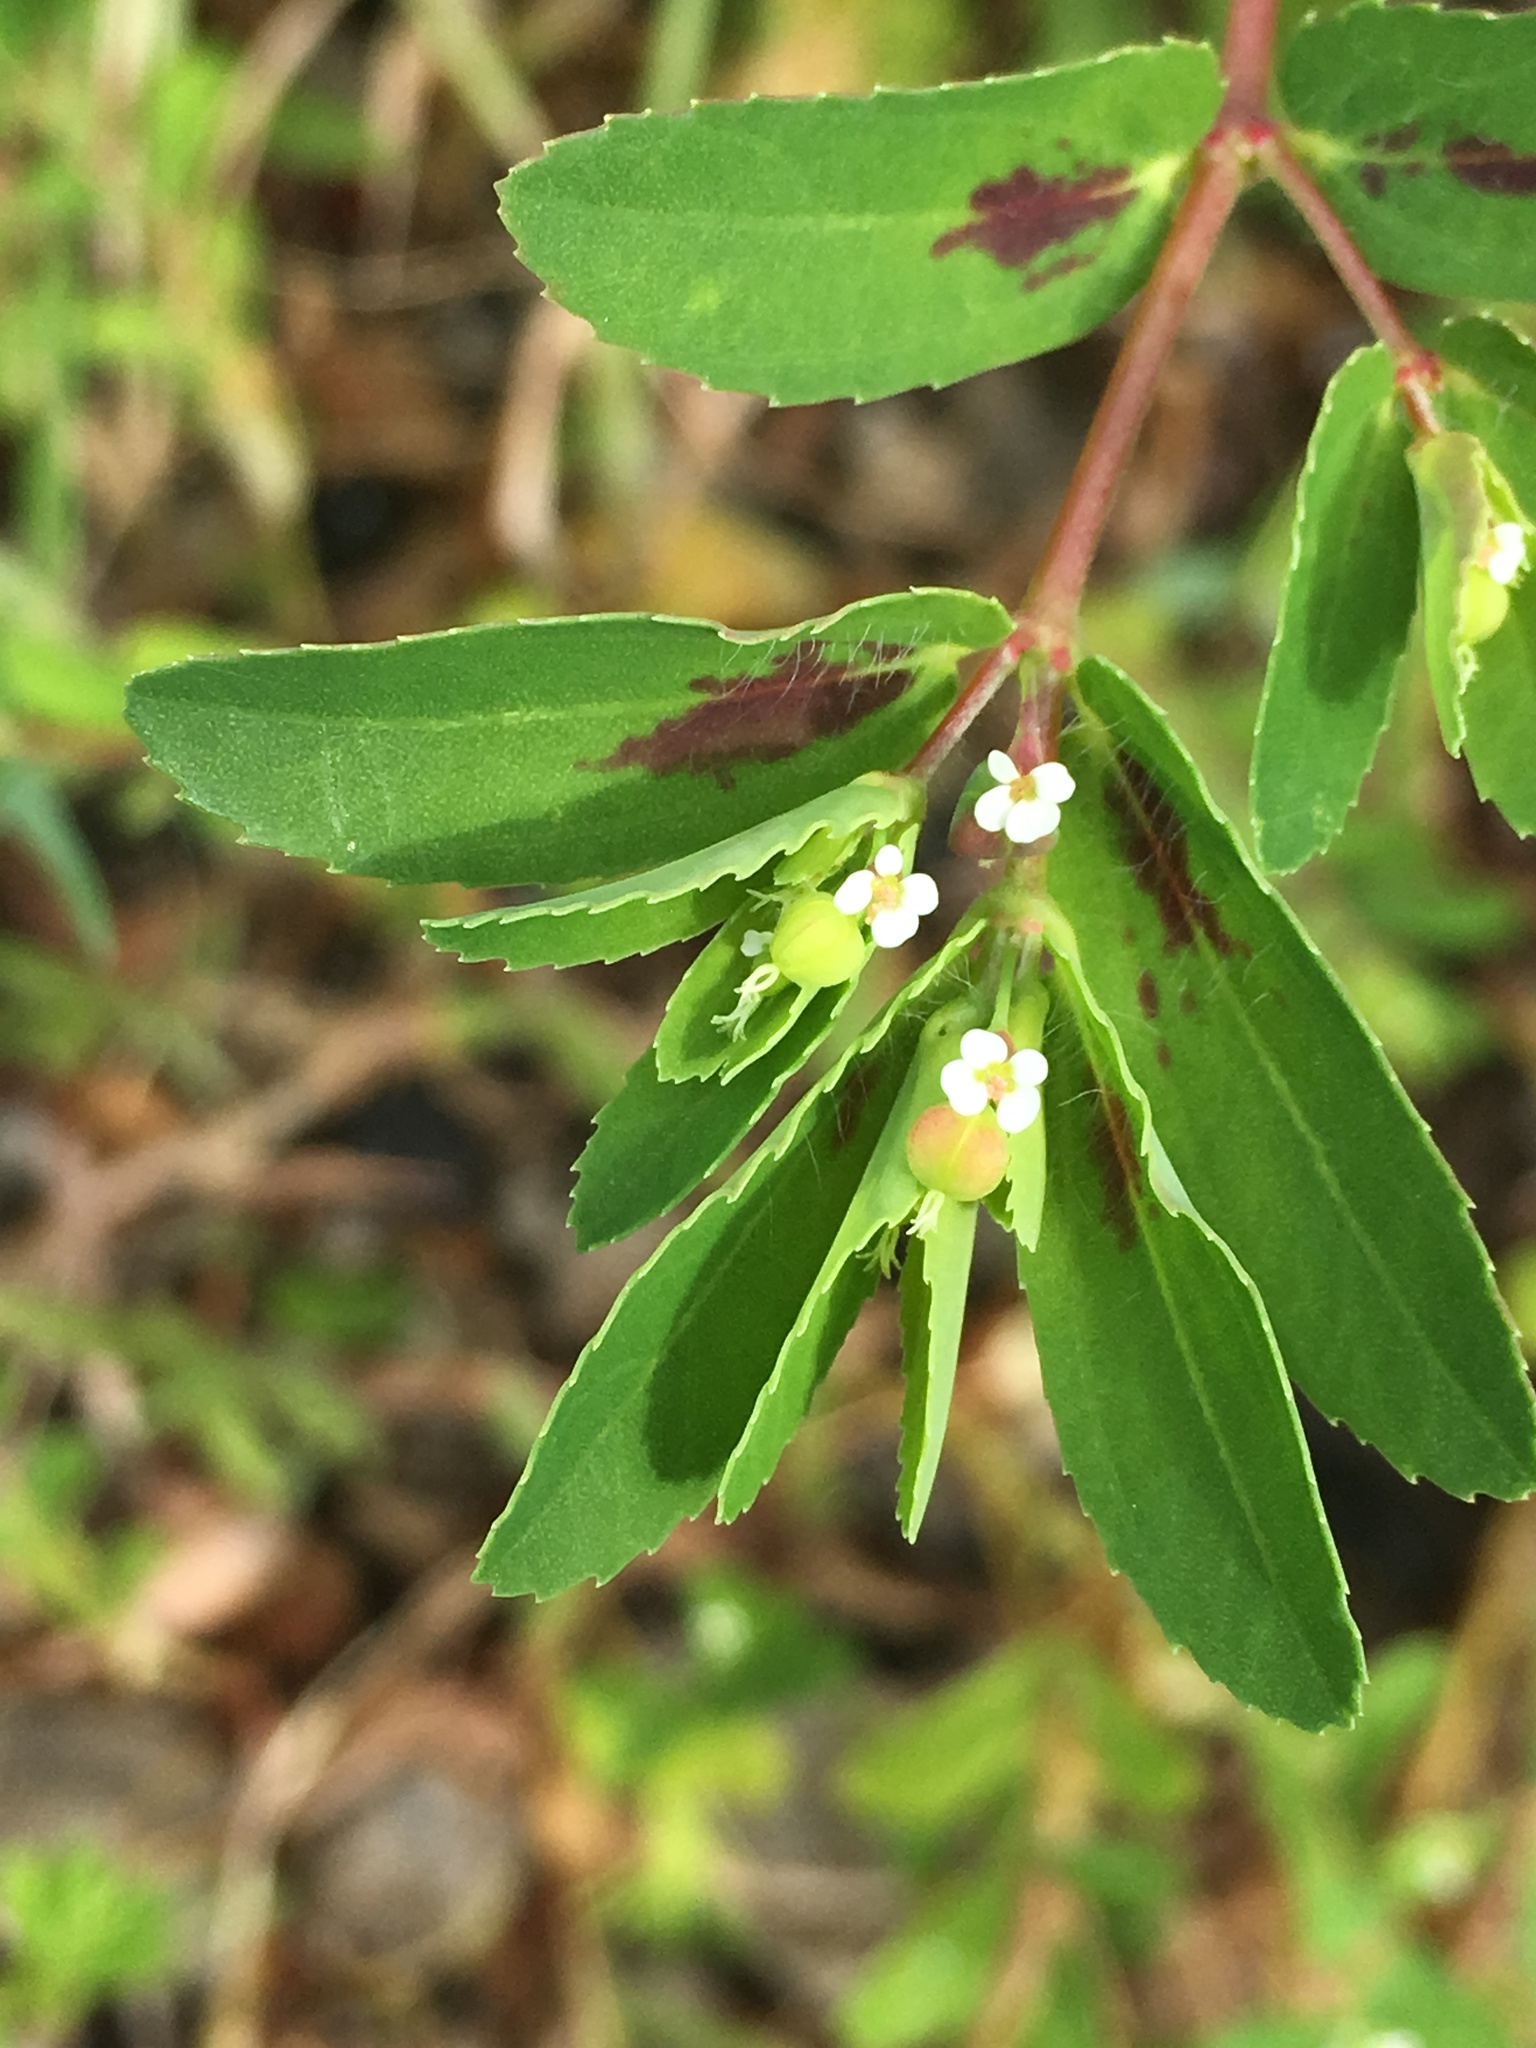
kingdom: Plantae
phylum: Tracheophyta
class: Magnoliopsida
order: Malpighiales
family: Euphorbiaceae
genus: Euphorbia
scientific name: Euphorbia nutans
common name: Eyebane
